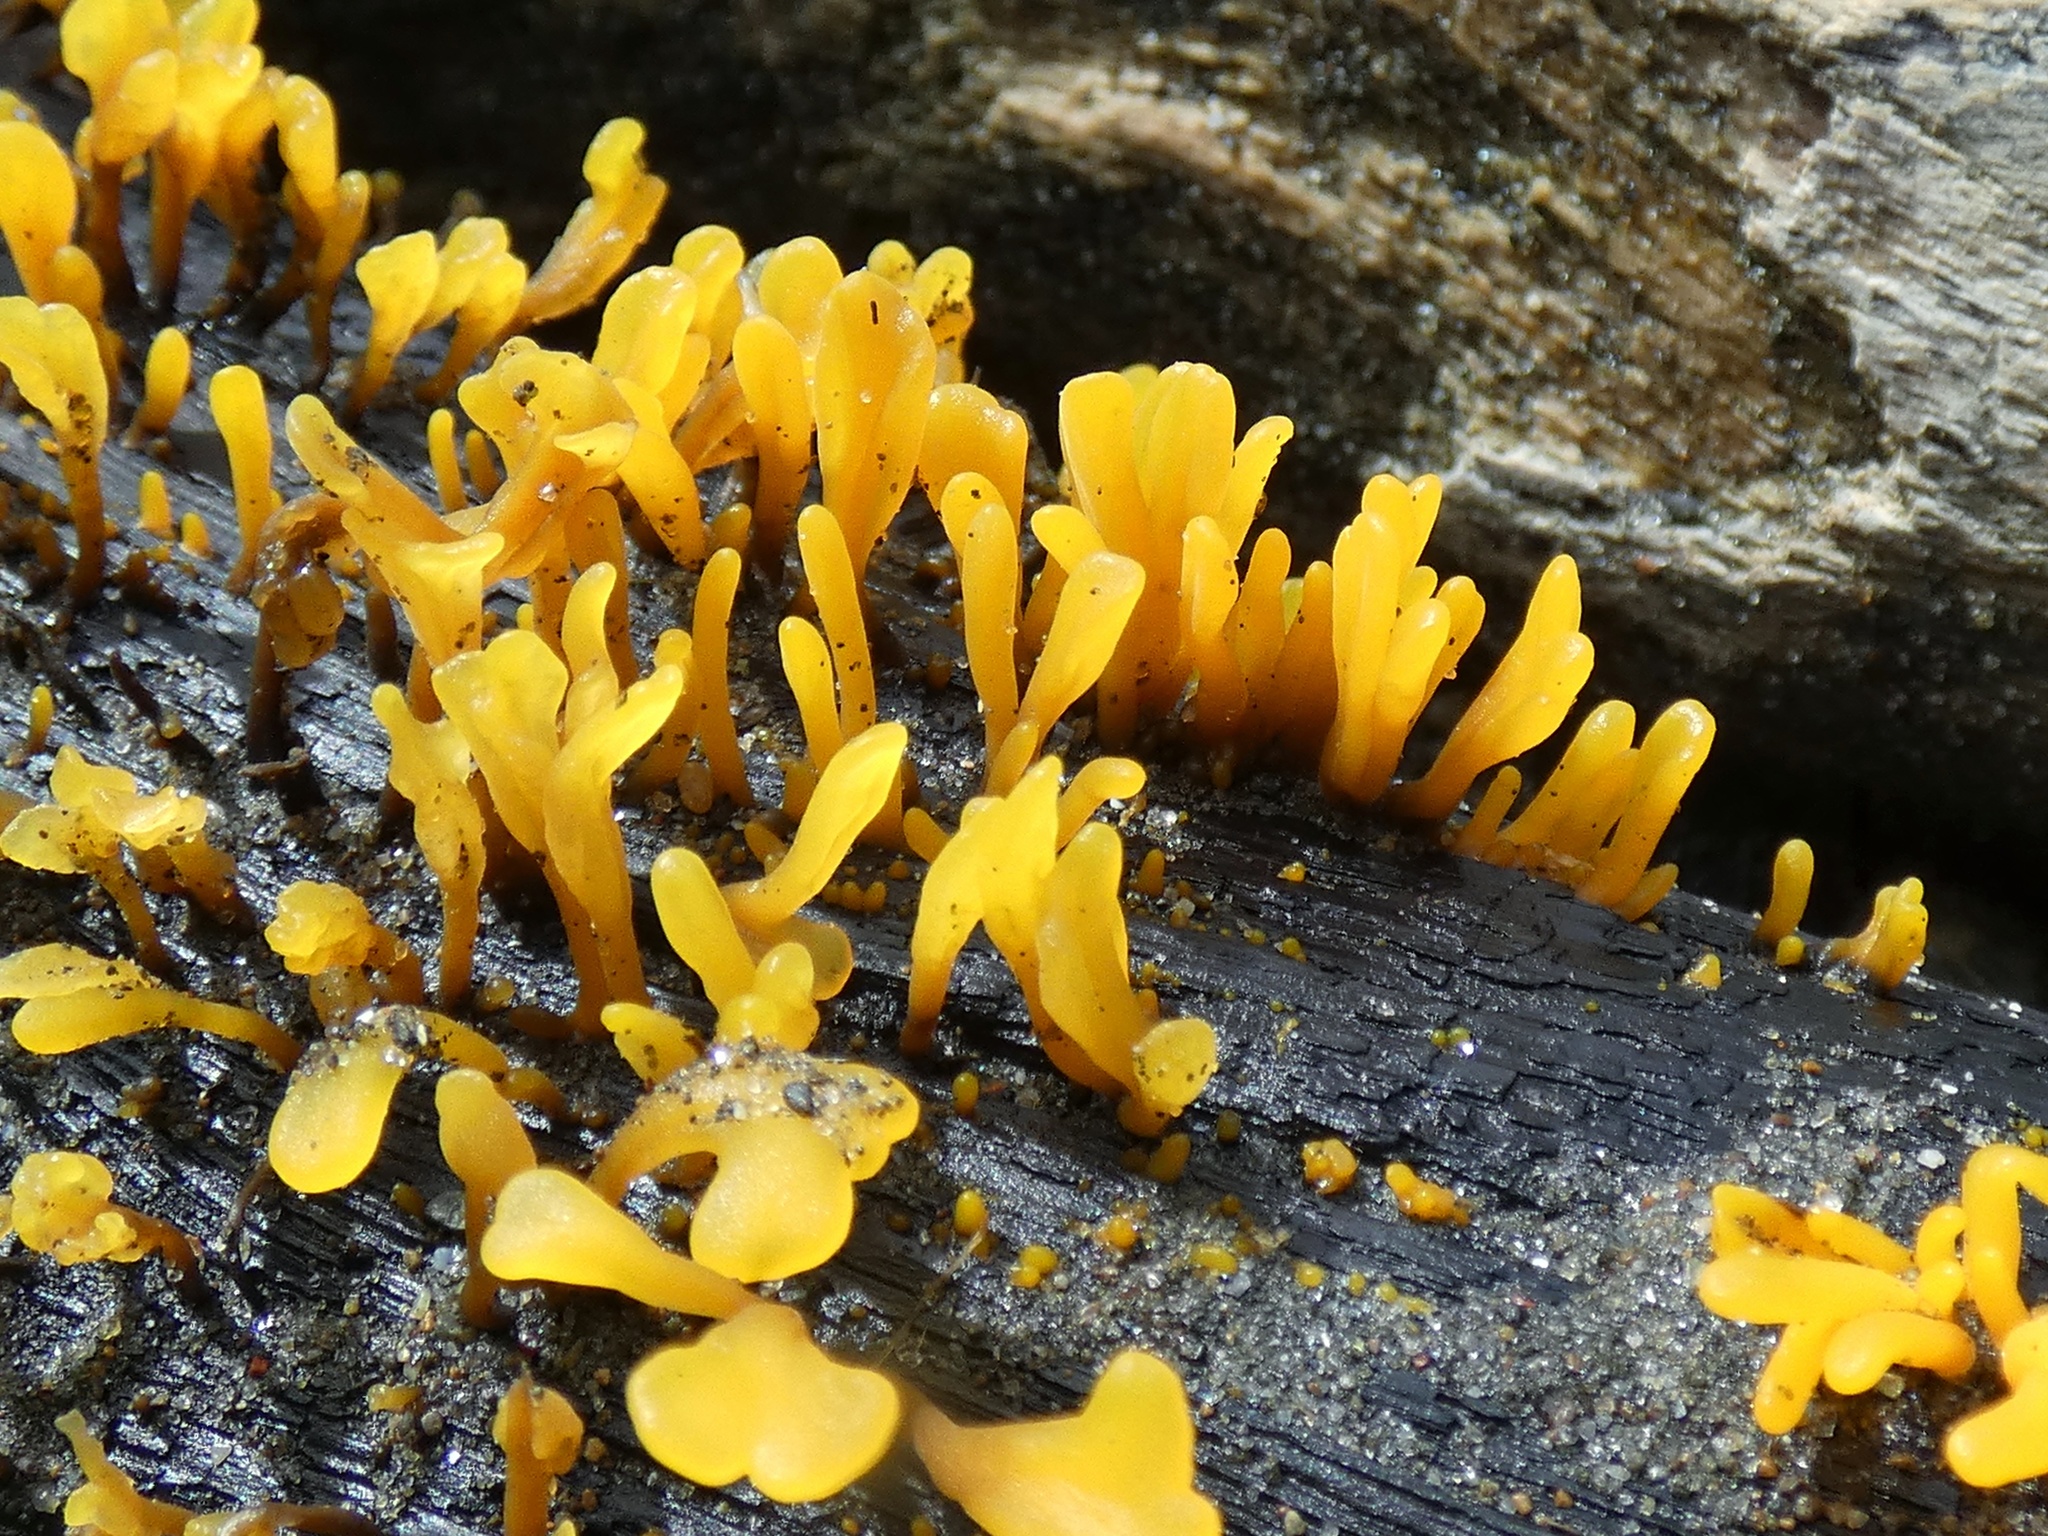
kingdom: Fungi
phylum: Basidiomycota
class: Dacrymycetes
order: Dacrymycetales
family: Dacrymycetaceae
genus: Dacrymyces
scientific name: Dacrymyces spathularius
